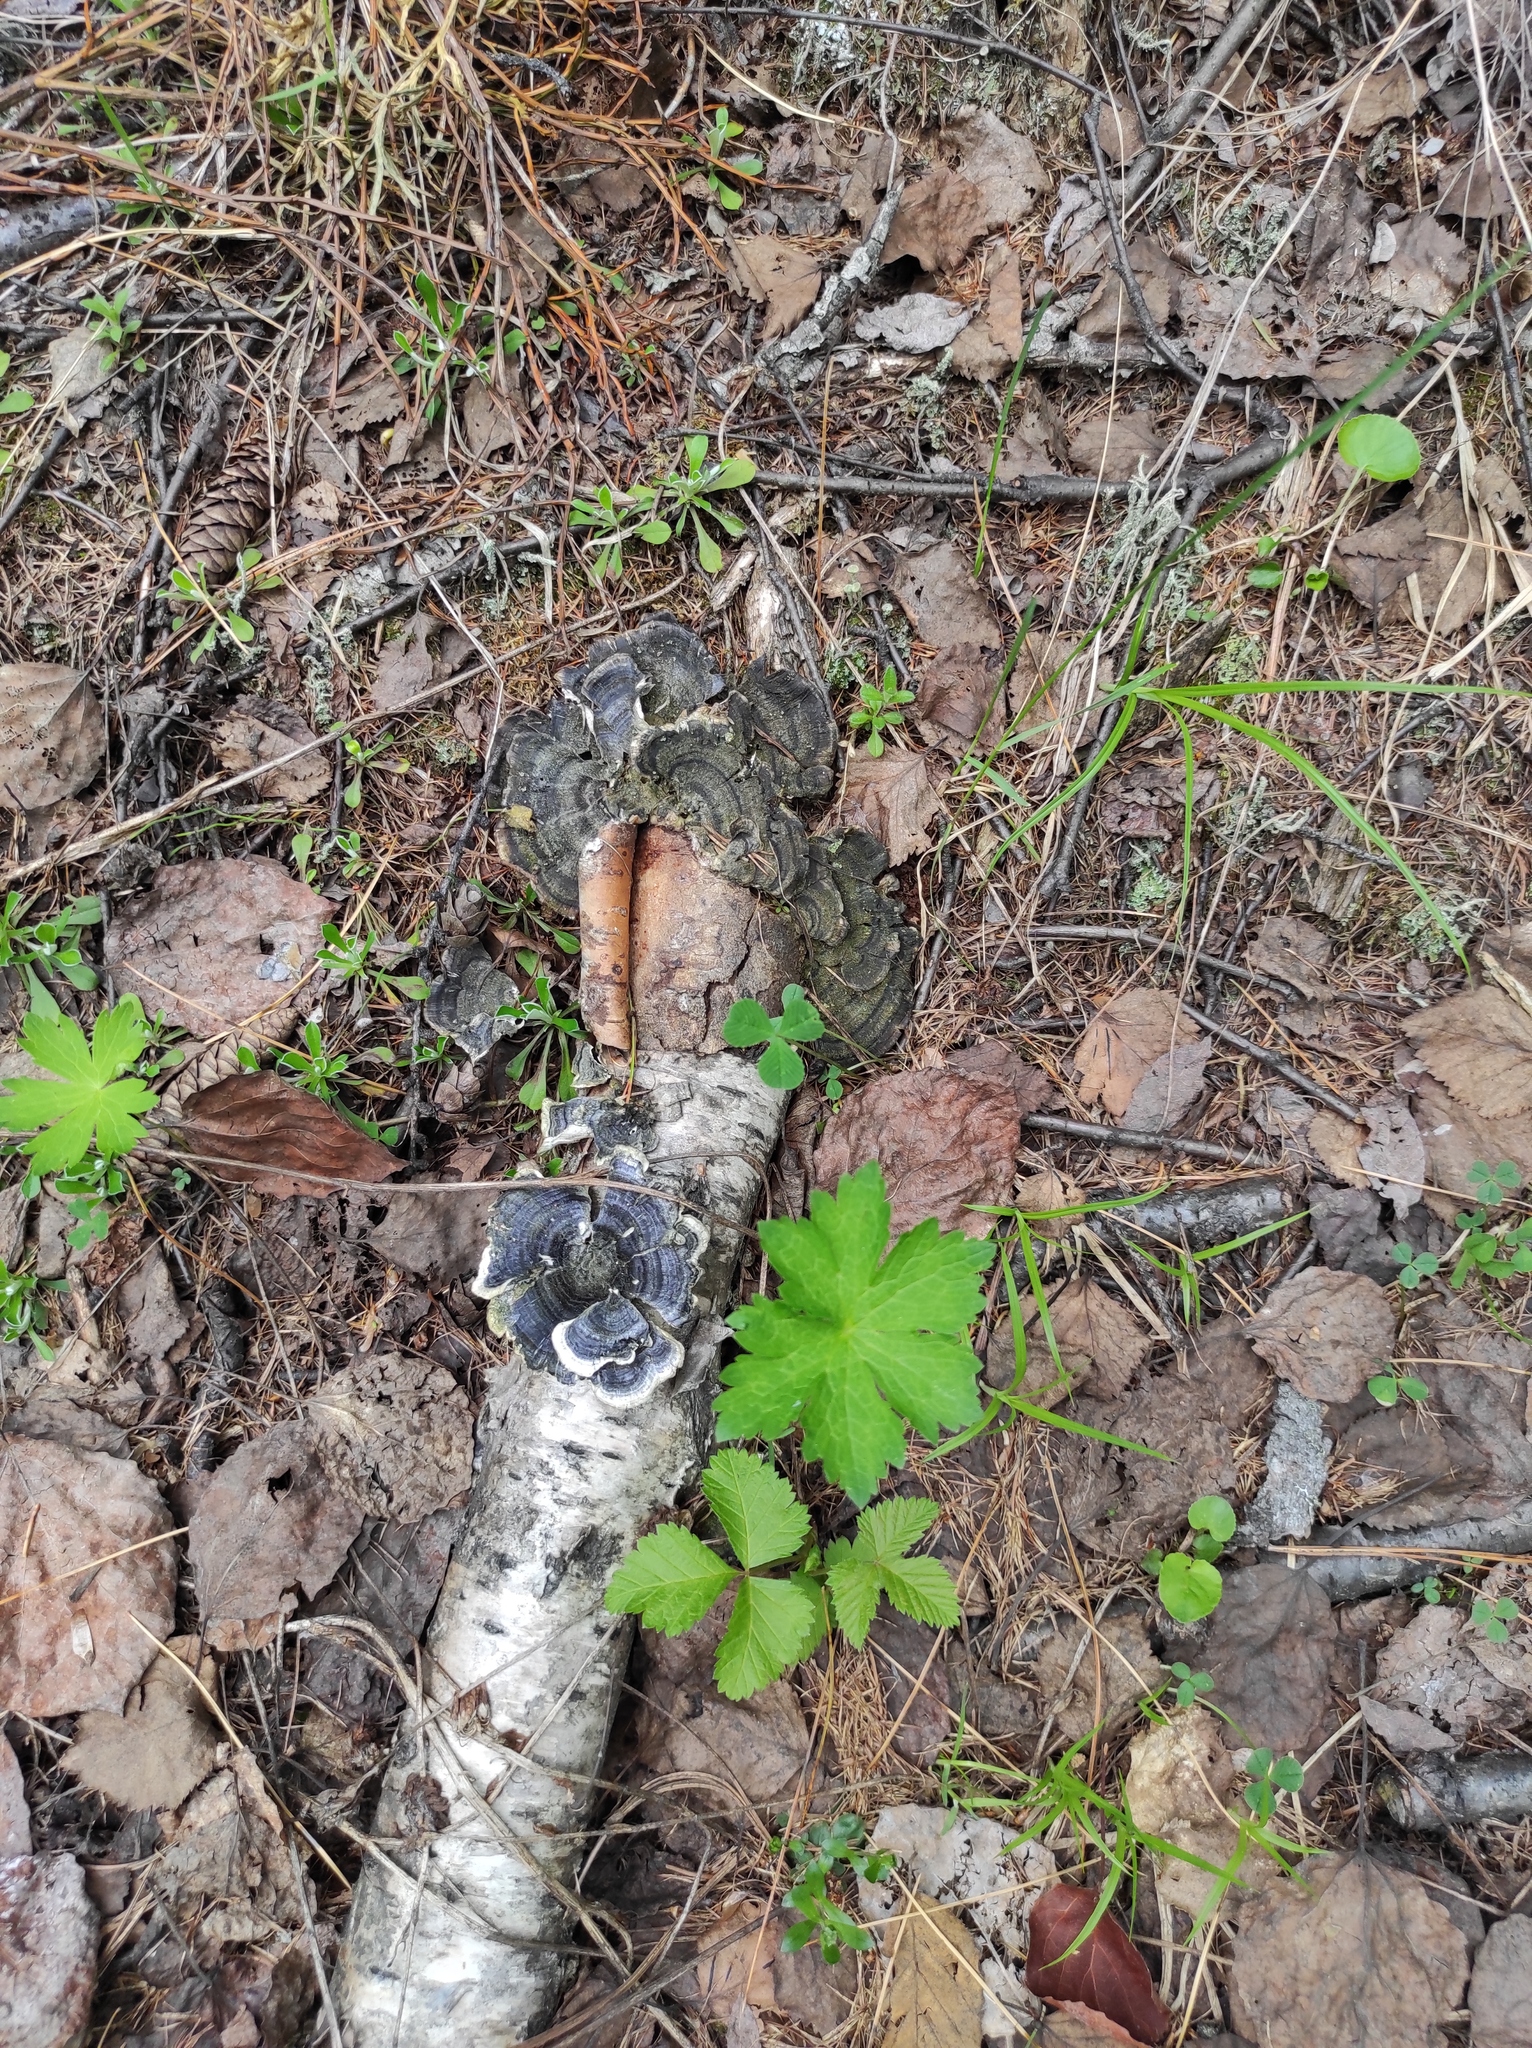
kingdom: Plantae
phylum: Tracheophyta
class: Magnoliopsida
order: Rosales
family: Rosaceae
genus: Rubus
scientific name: Rubus arcticus
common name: Arctic bramble
